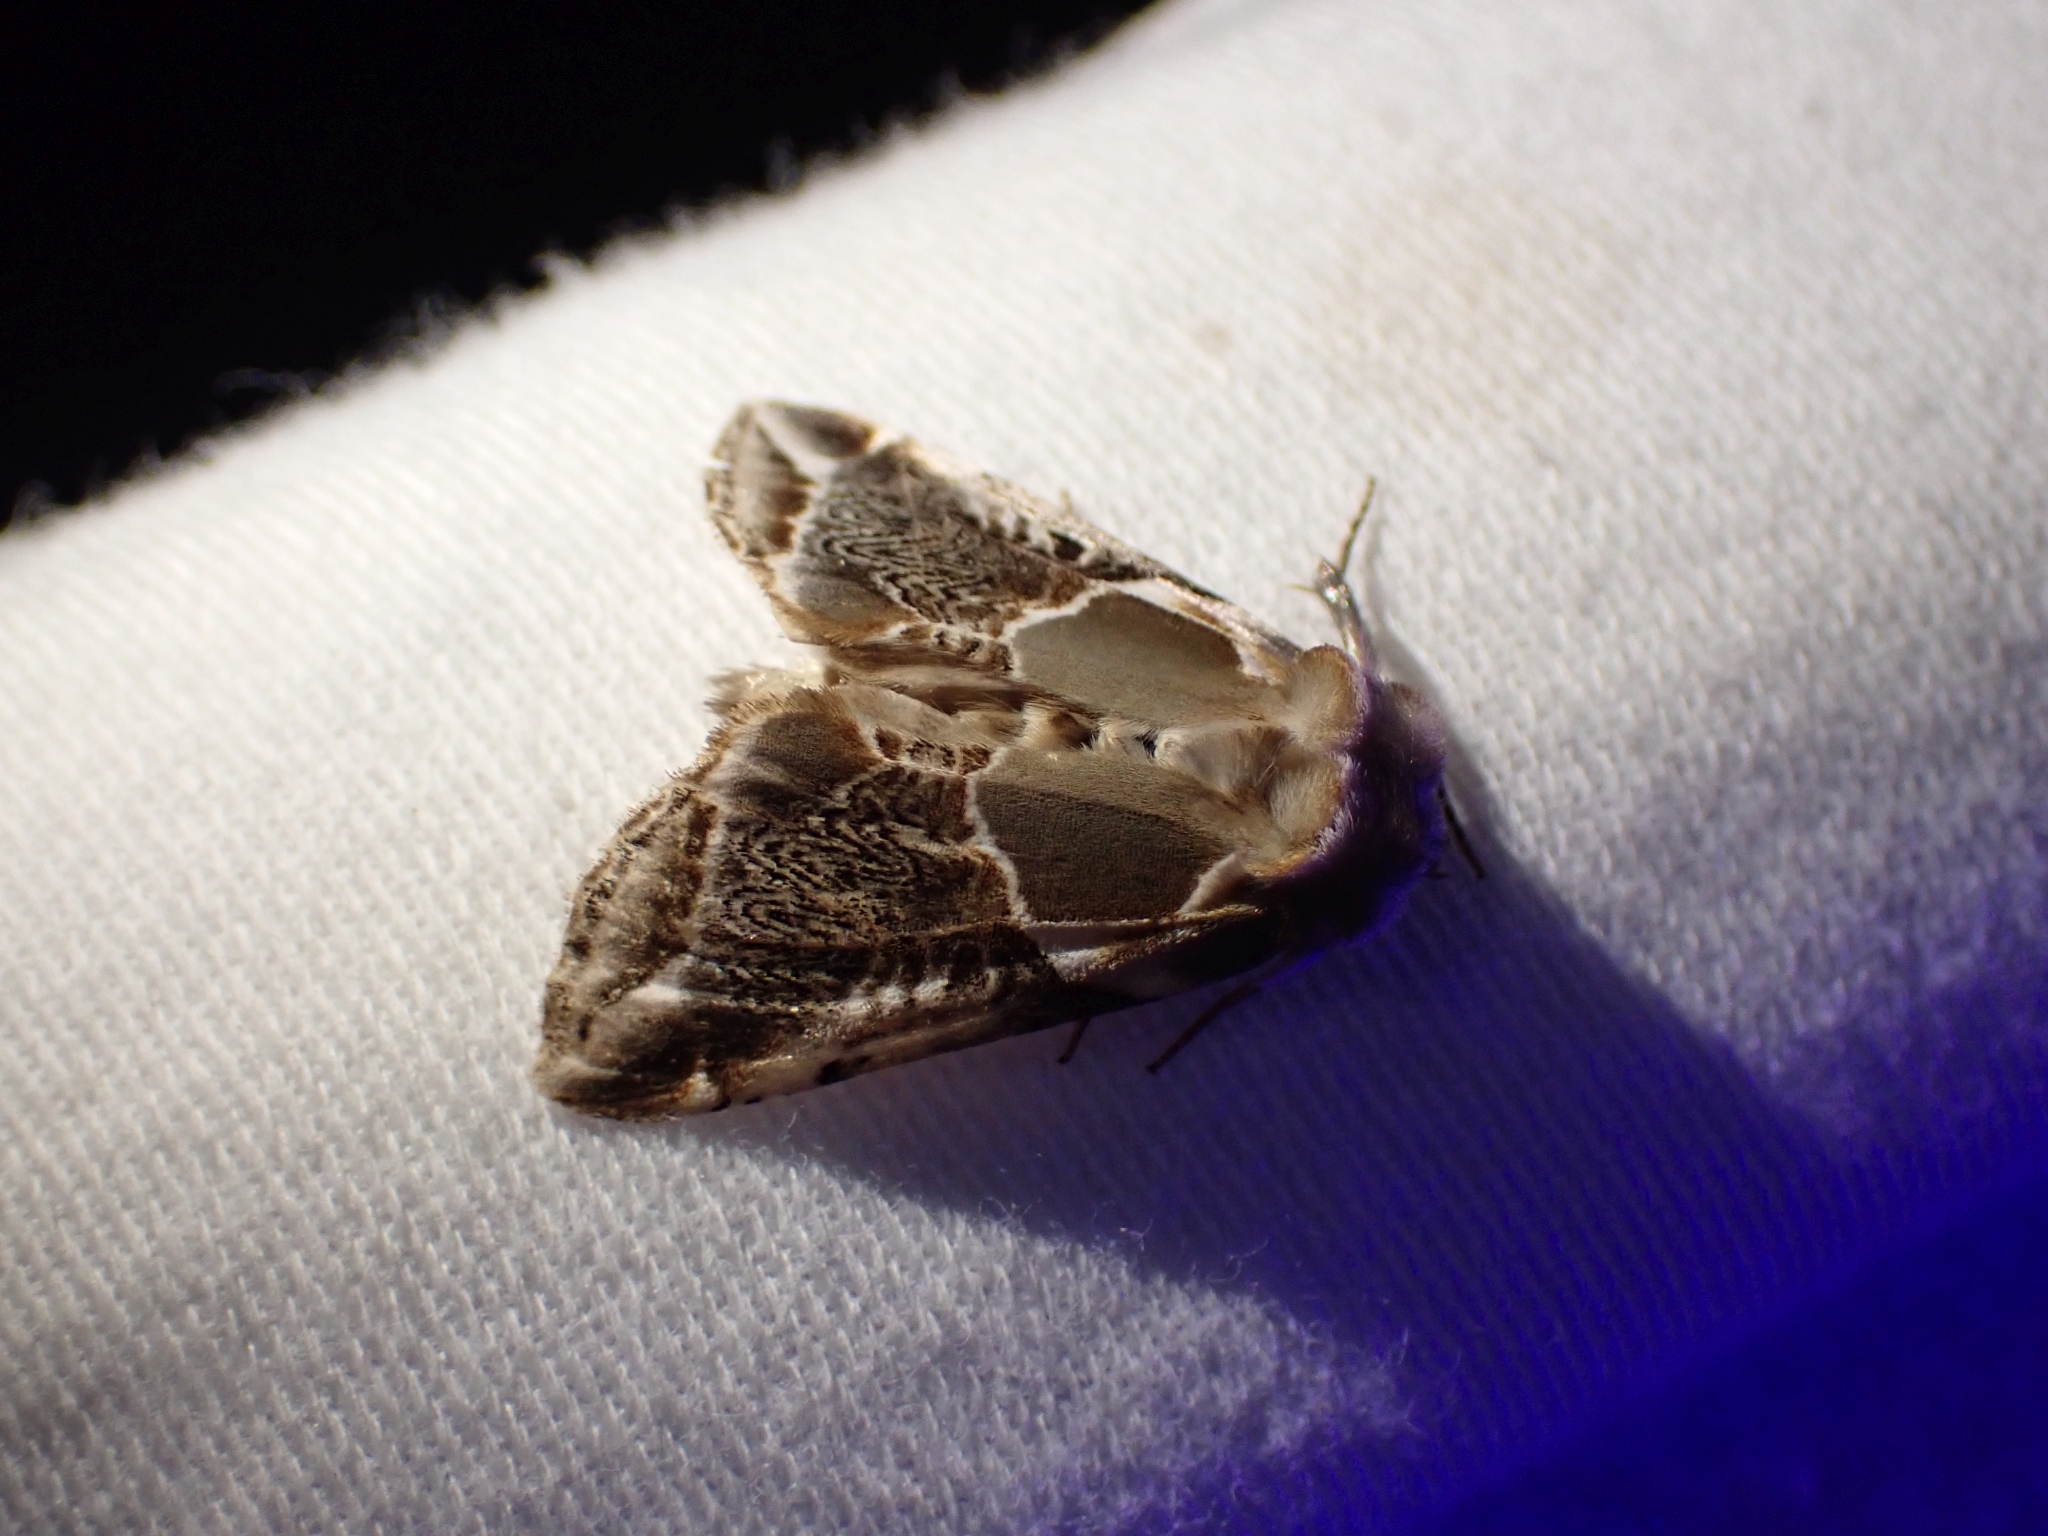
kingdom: Animalia
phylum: Arthropoda
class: Insecta
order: Lepidoptera
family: Drepanidae
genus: Habrosyne
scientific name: Habrosyne scripta
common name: Lettered habrosyne moth
